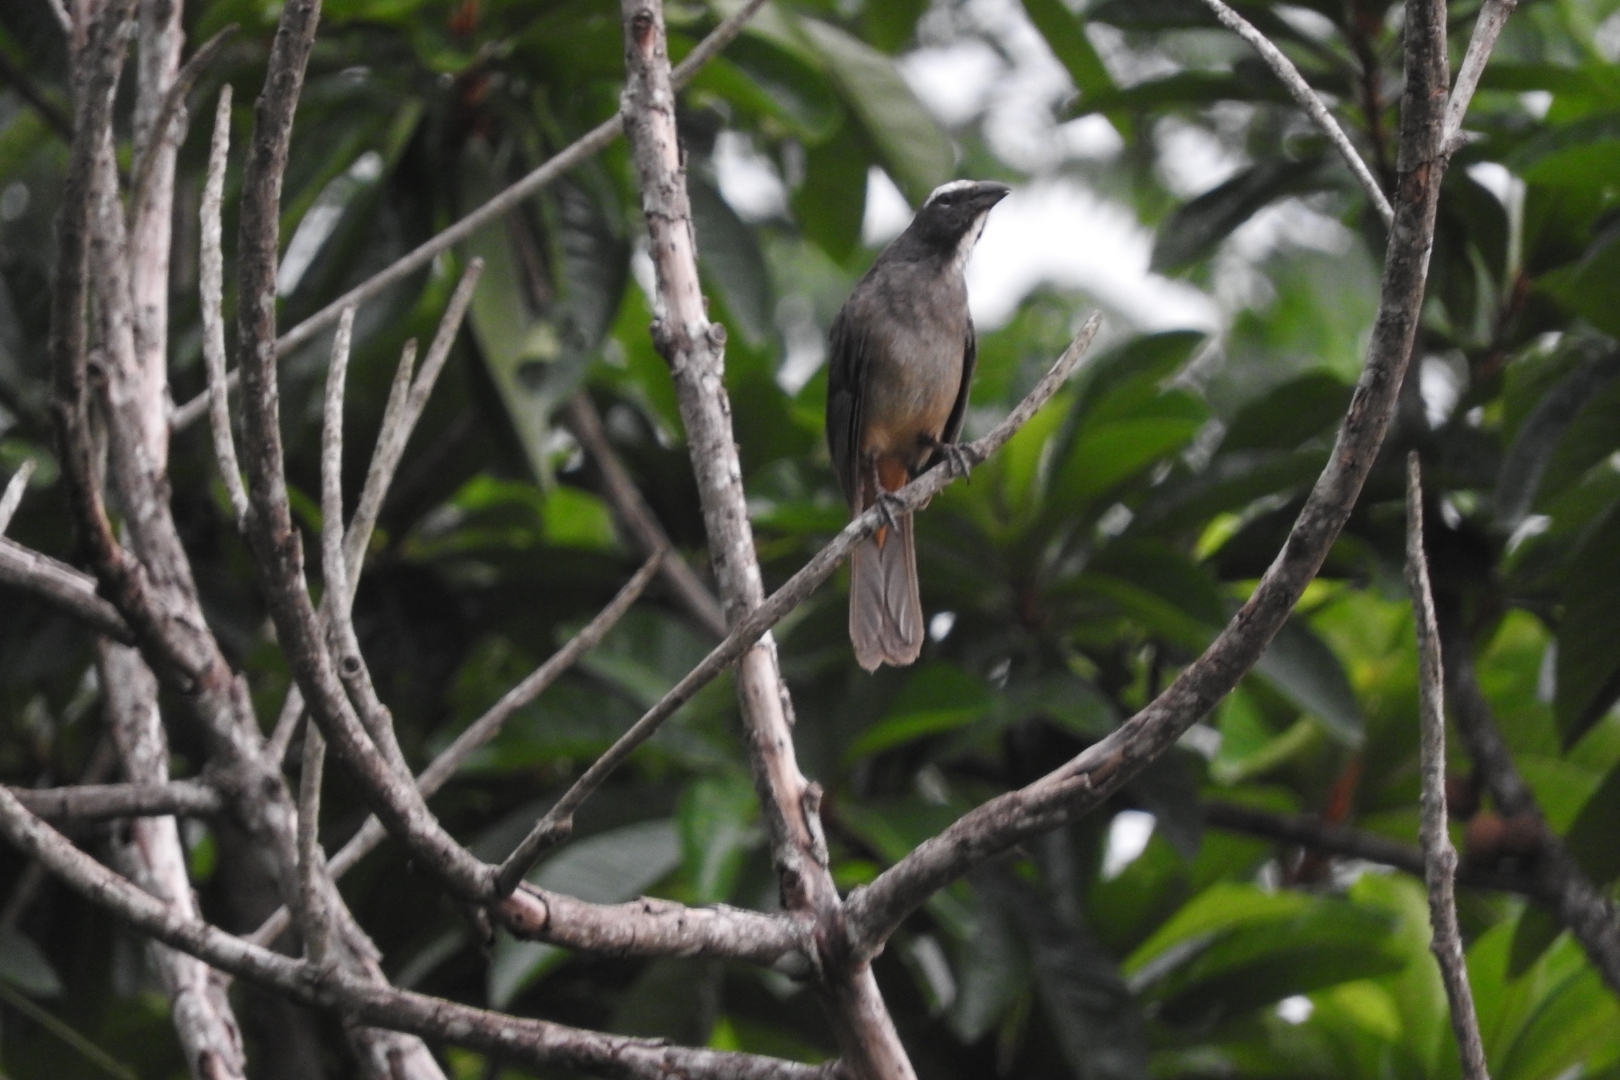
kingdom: Animalia
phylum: Chordata
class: Aves
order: Passeriformes
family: Thraupidae
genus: Saltator
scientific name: Saltator grandis
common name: Cinnamon-bellied saltator
